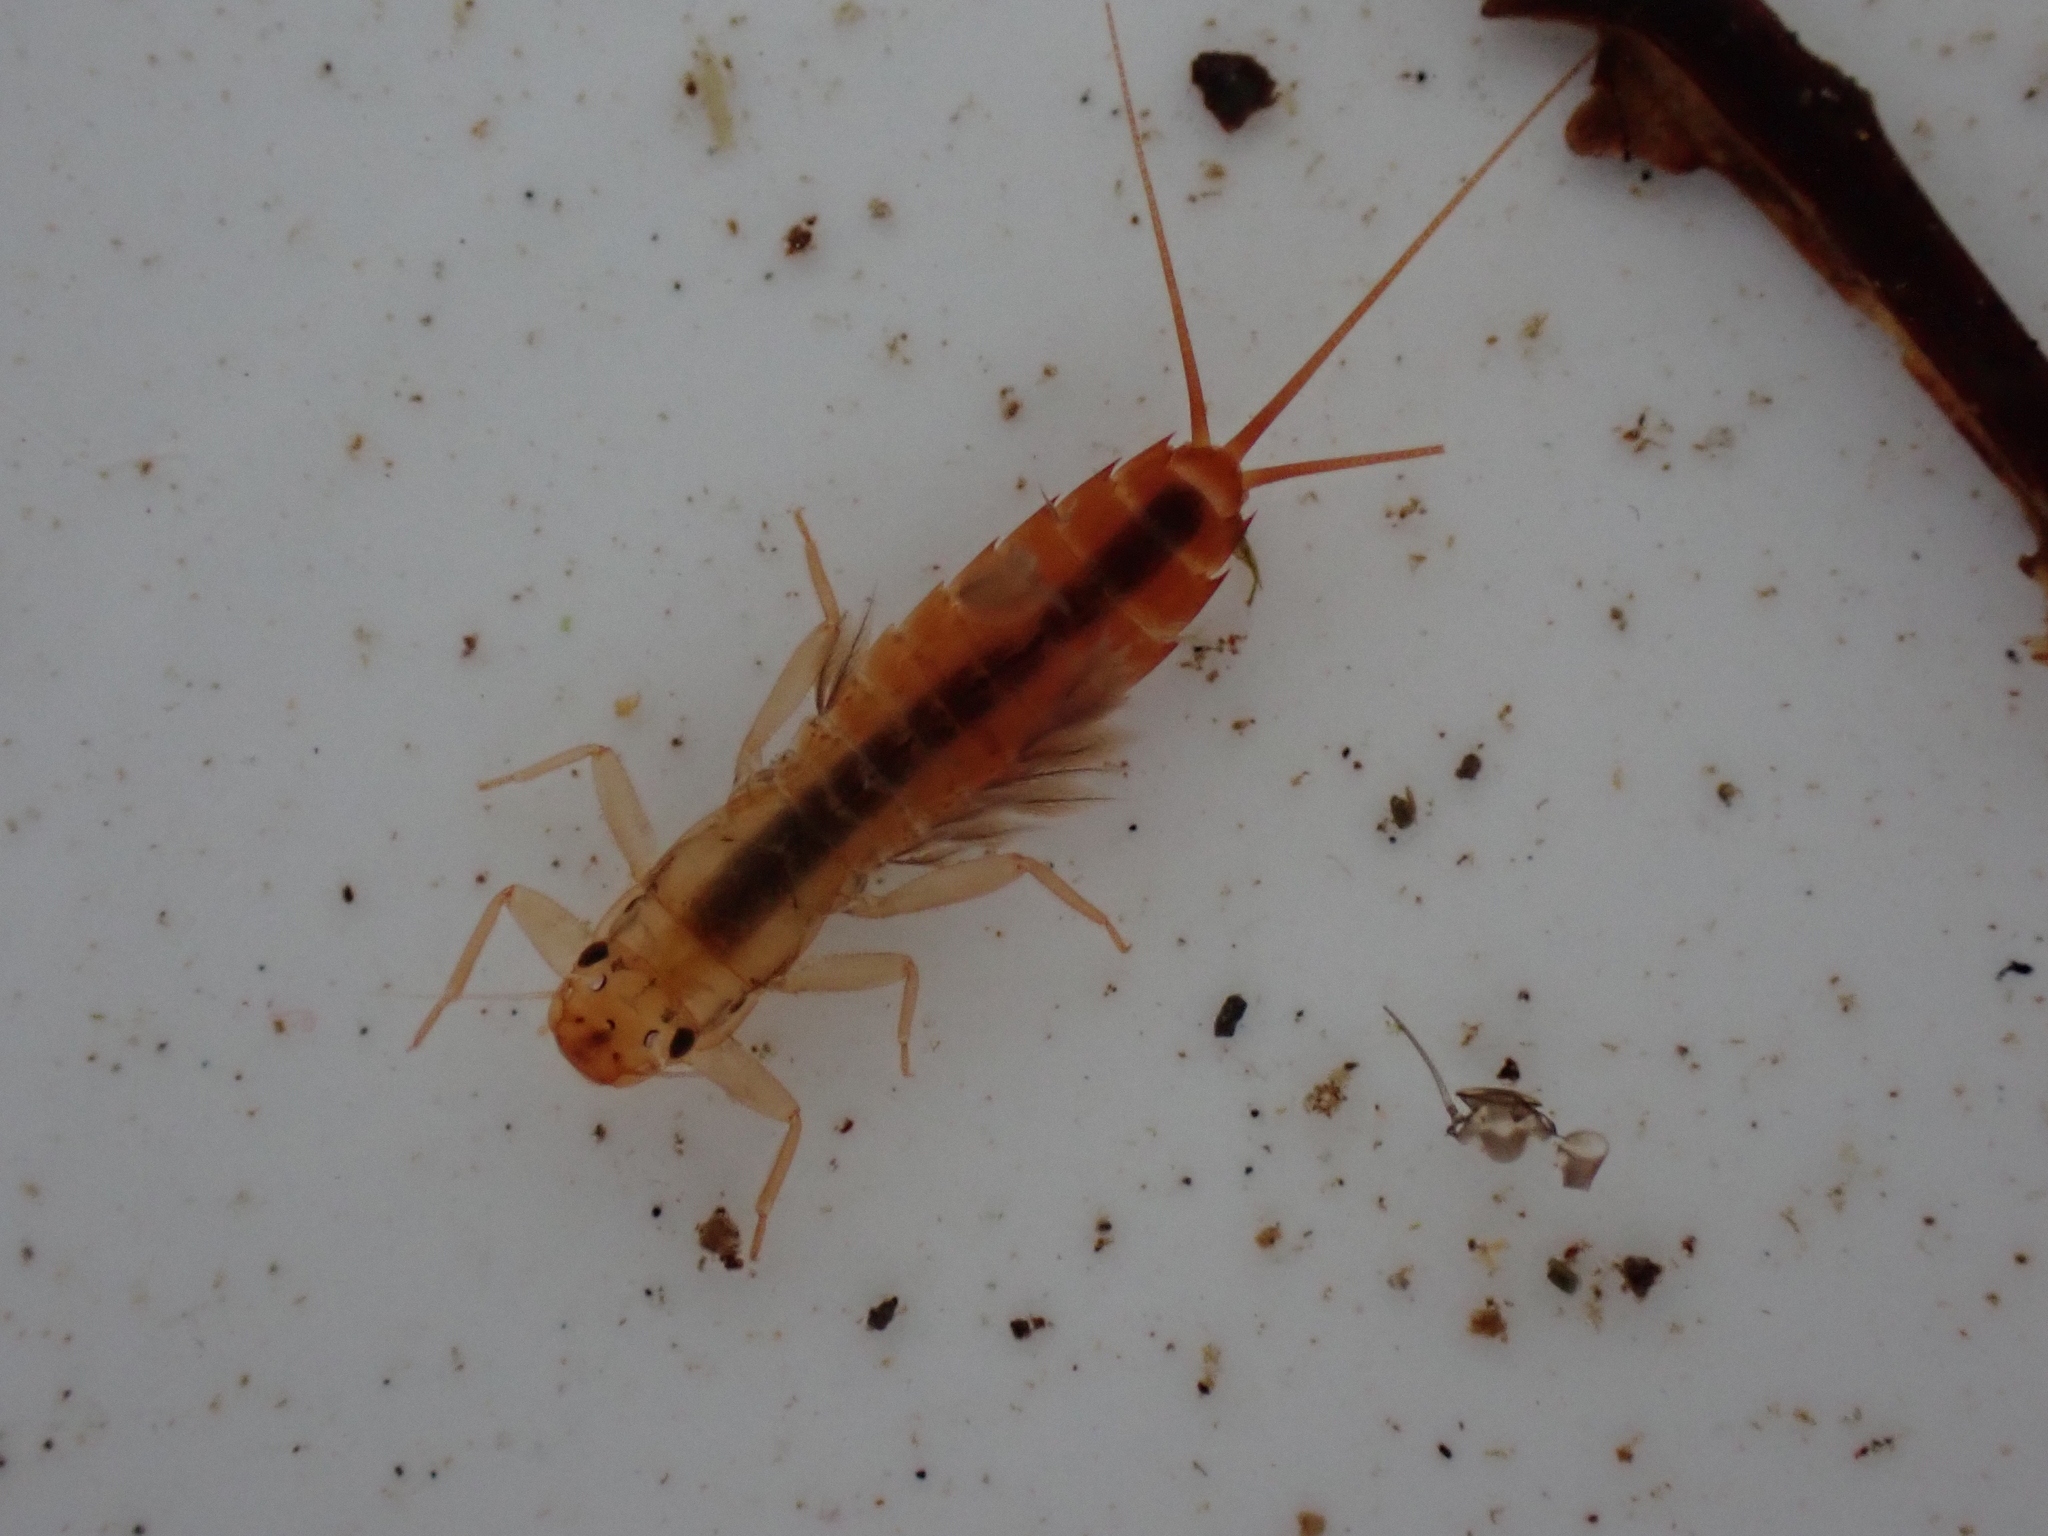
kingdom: Animalia
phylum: Arthropoda
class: Insecta
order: Ephemeroptera
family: Leptophlebiidae
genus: Acanthophlebia
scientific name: Acanthophlebia cruentata
